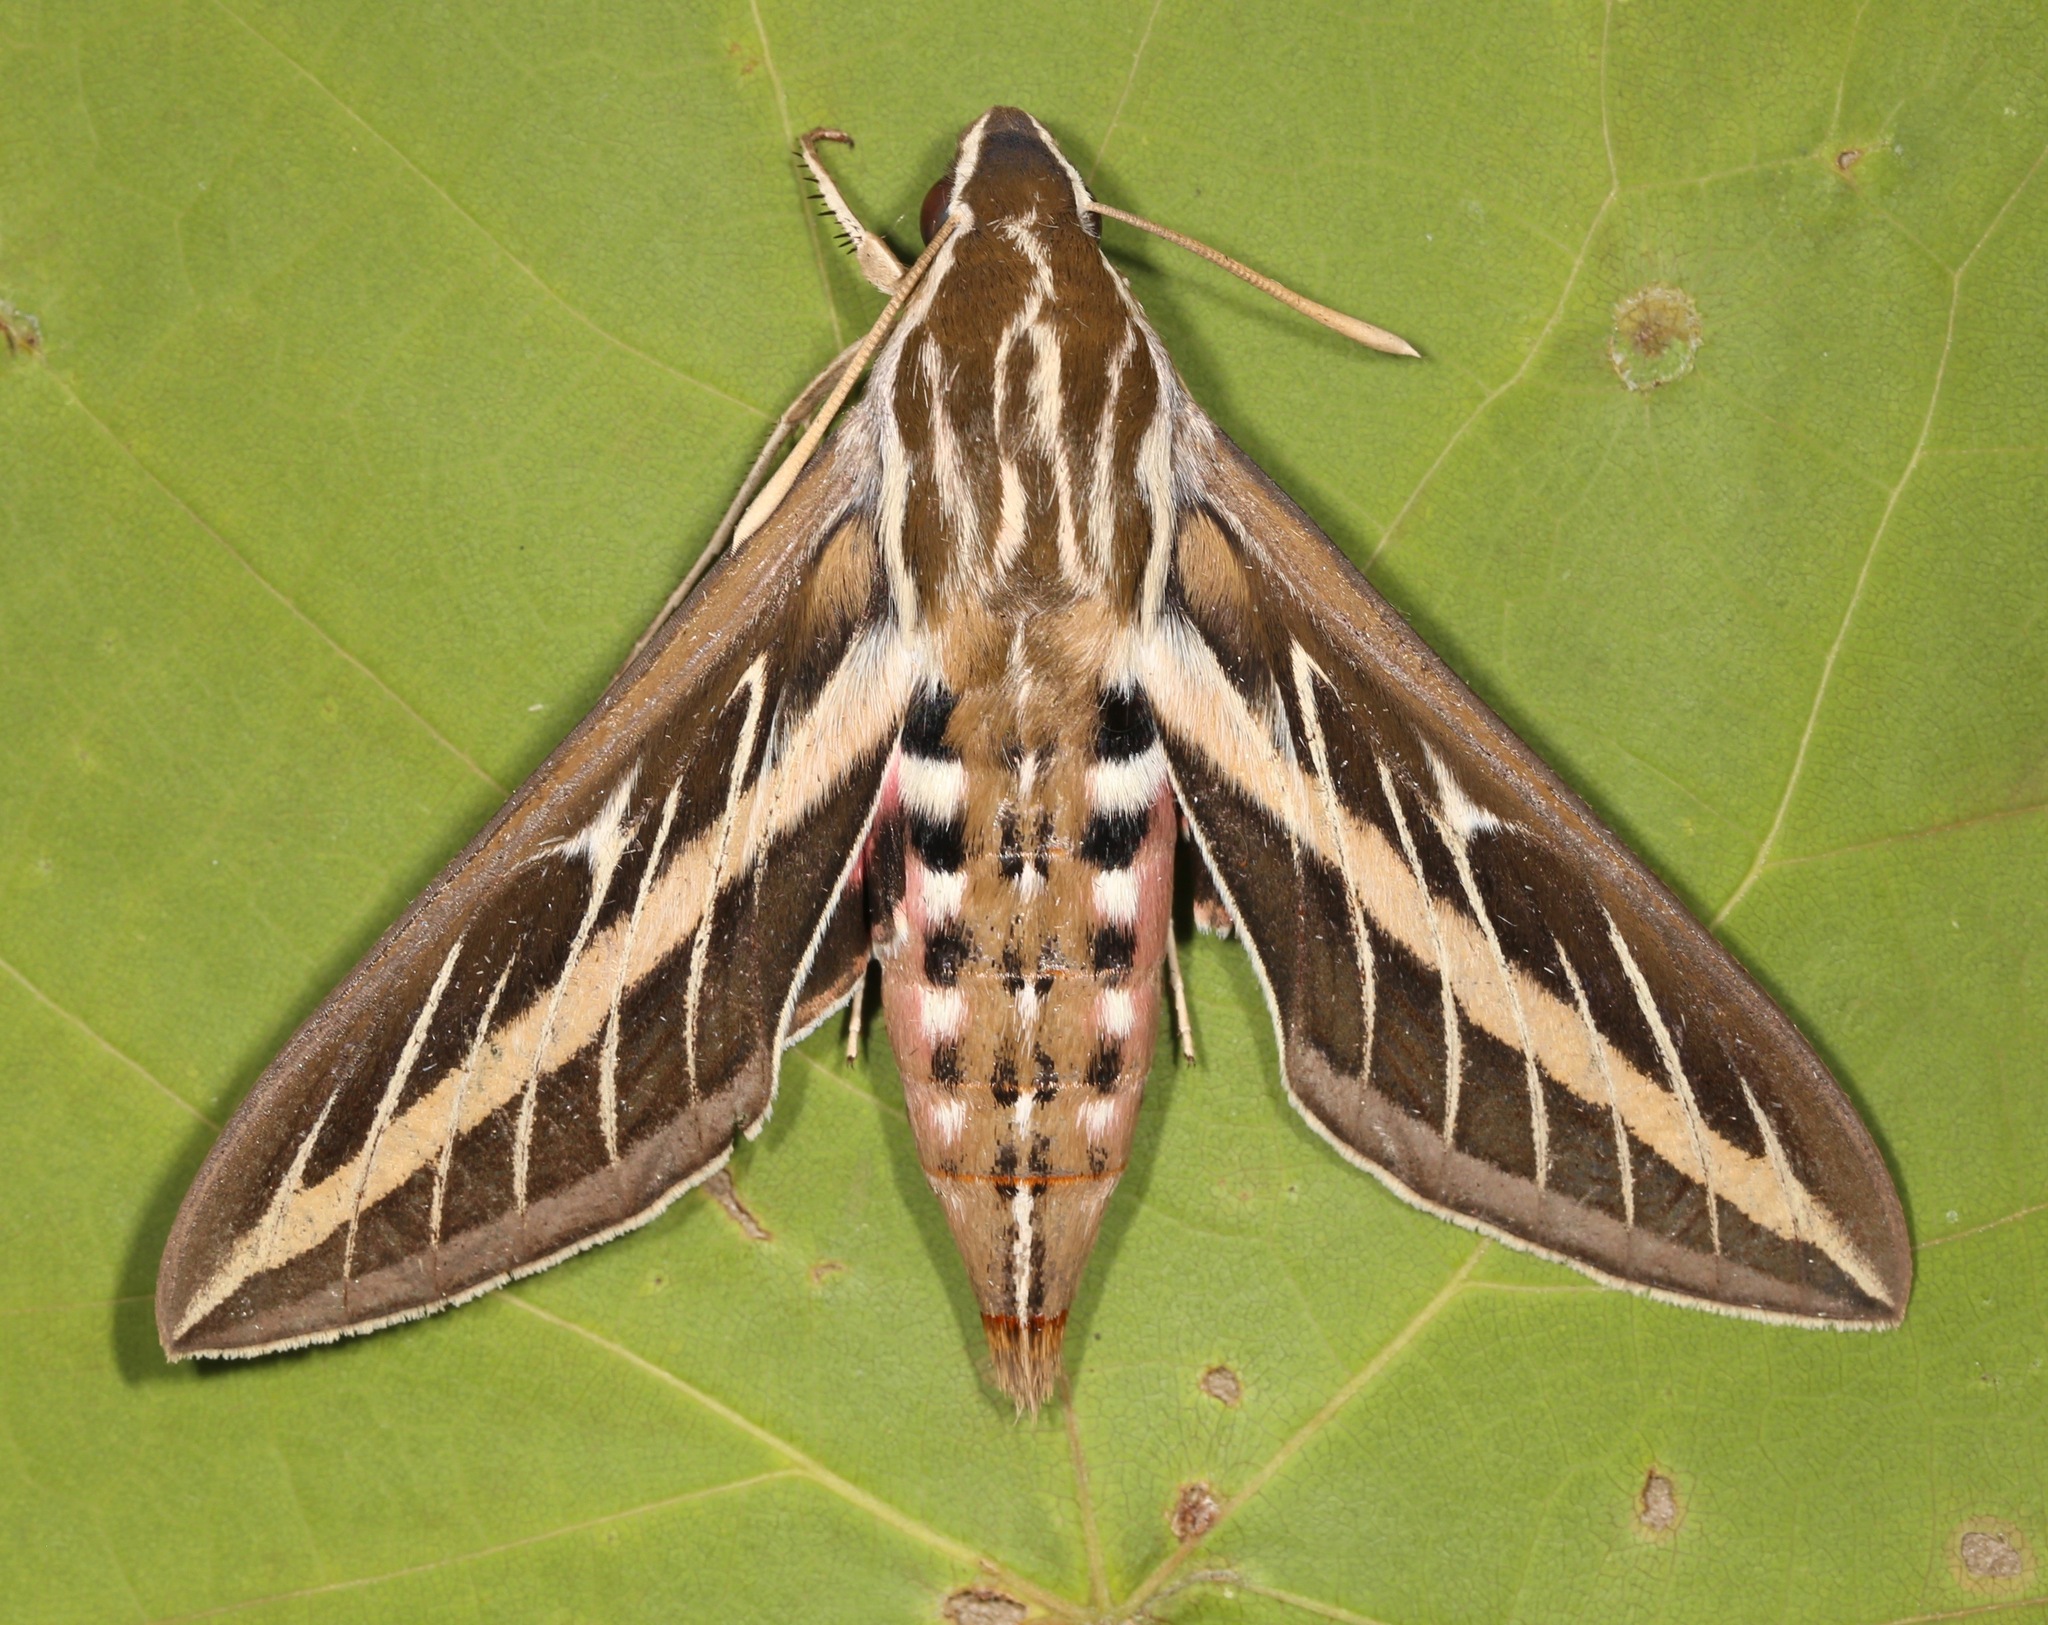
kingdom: Animalia
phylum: Arthropoda
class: Insecta
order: Lepidoptera
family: Sphingidae
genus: Hyles
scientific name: Hyles lineata
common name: White-lined sphinx
